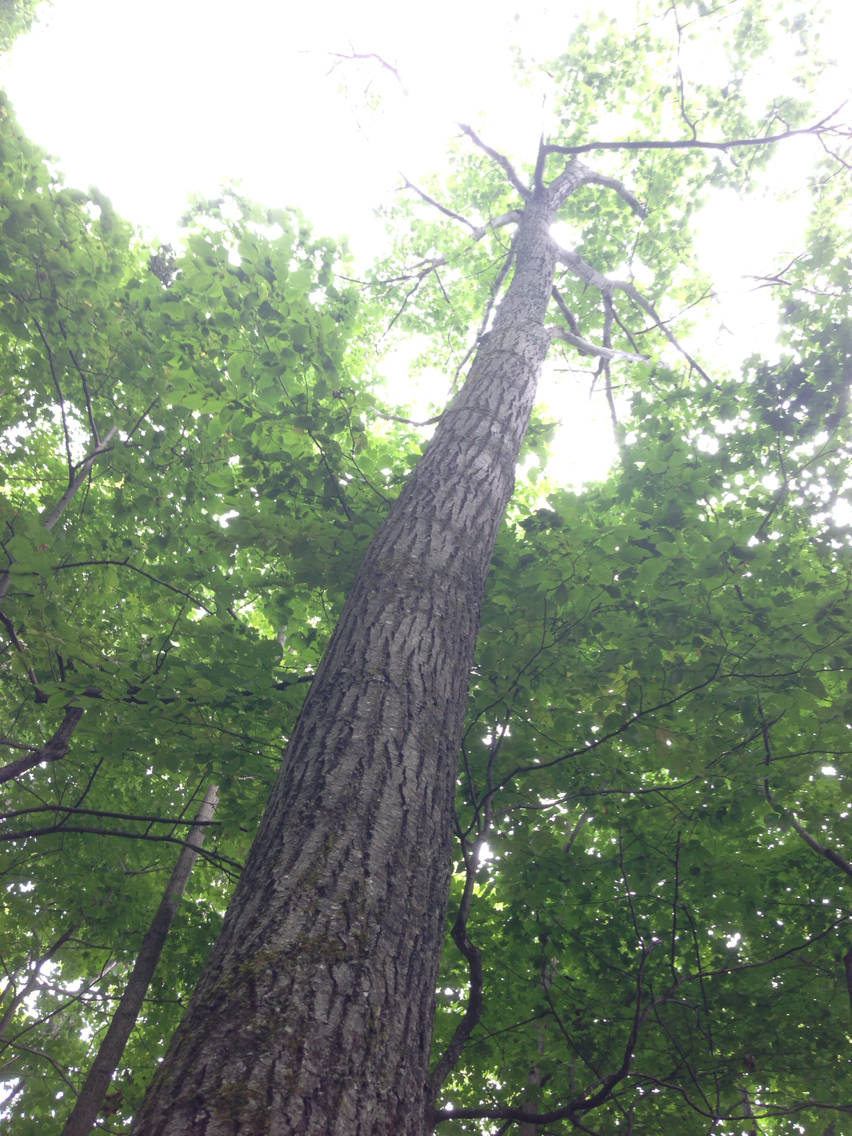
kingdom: Plantae
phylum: Tracheophyta
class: Magnoliopsida
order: Fagales
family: Fagaceae
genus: Quercus
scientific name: Quercus rubra
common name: Red oak
